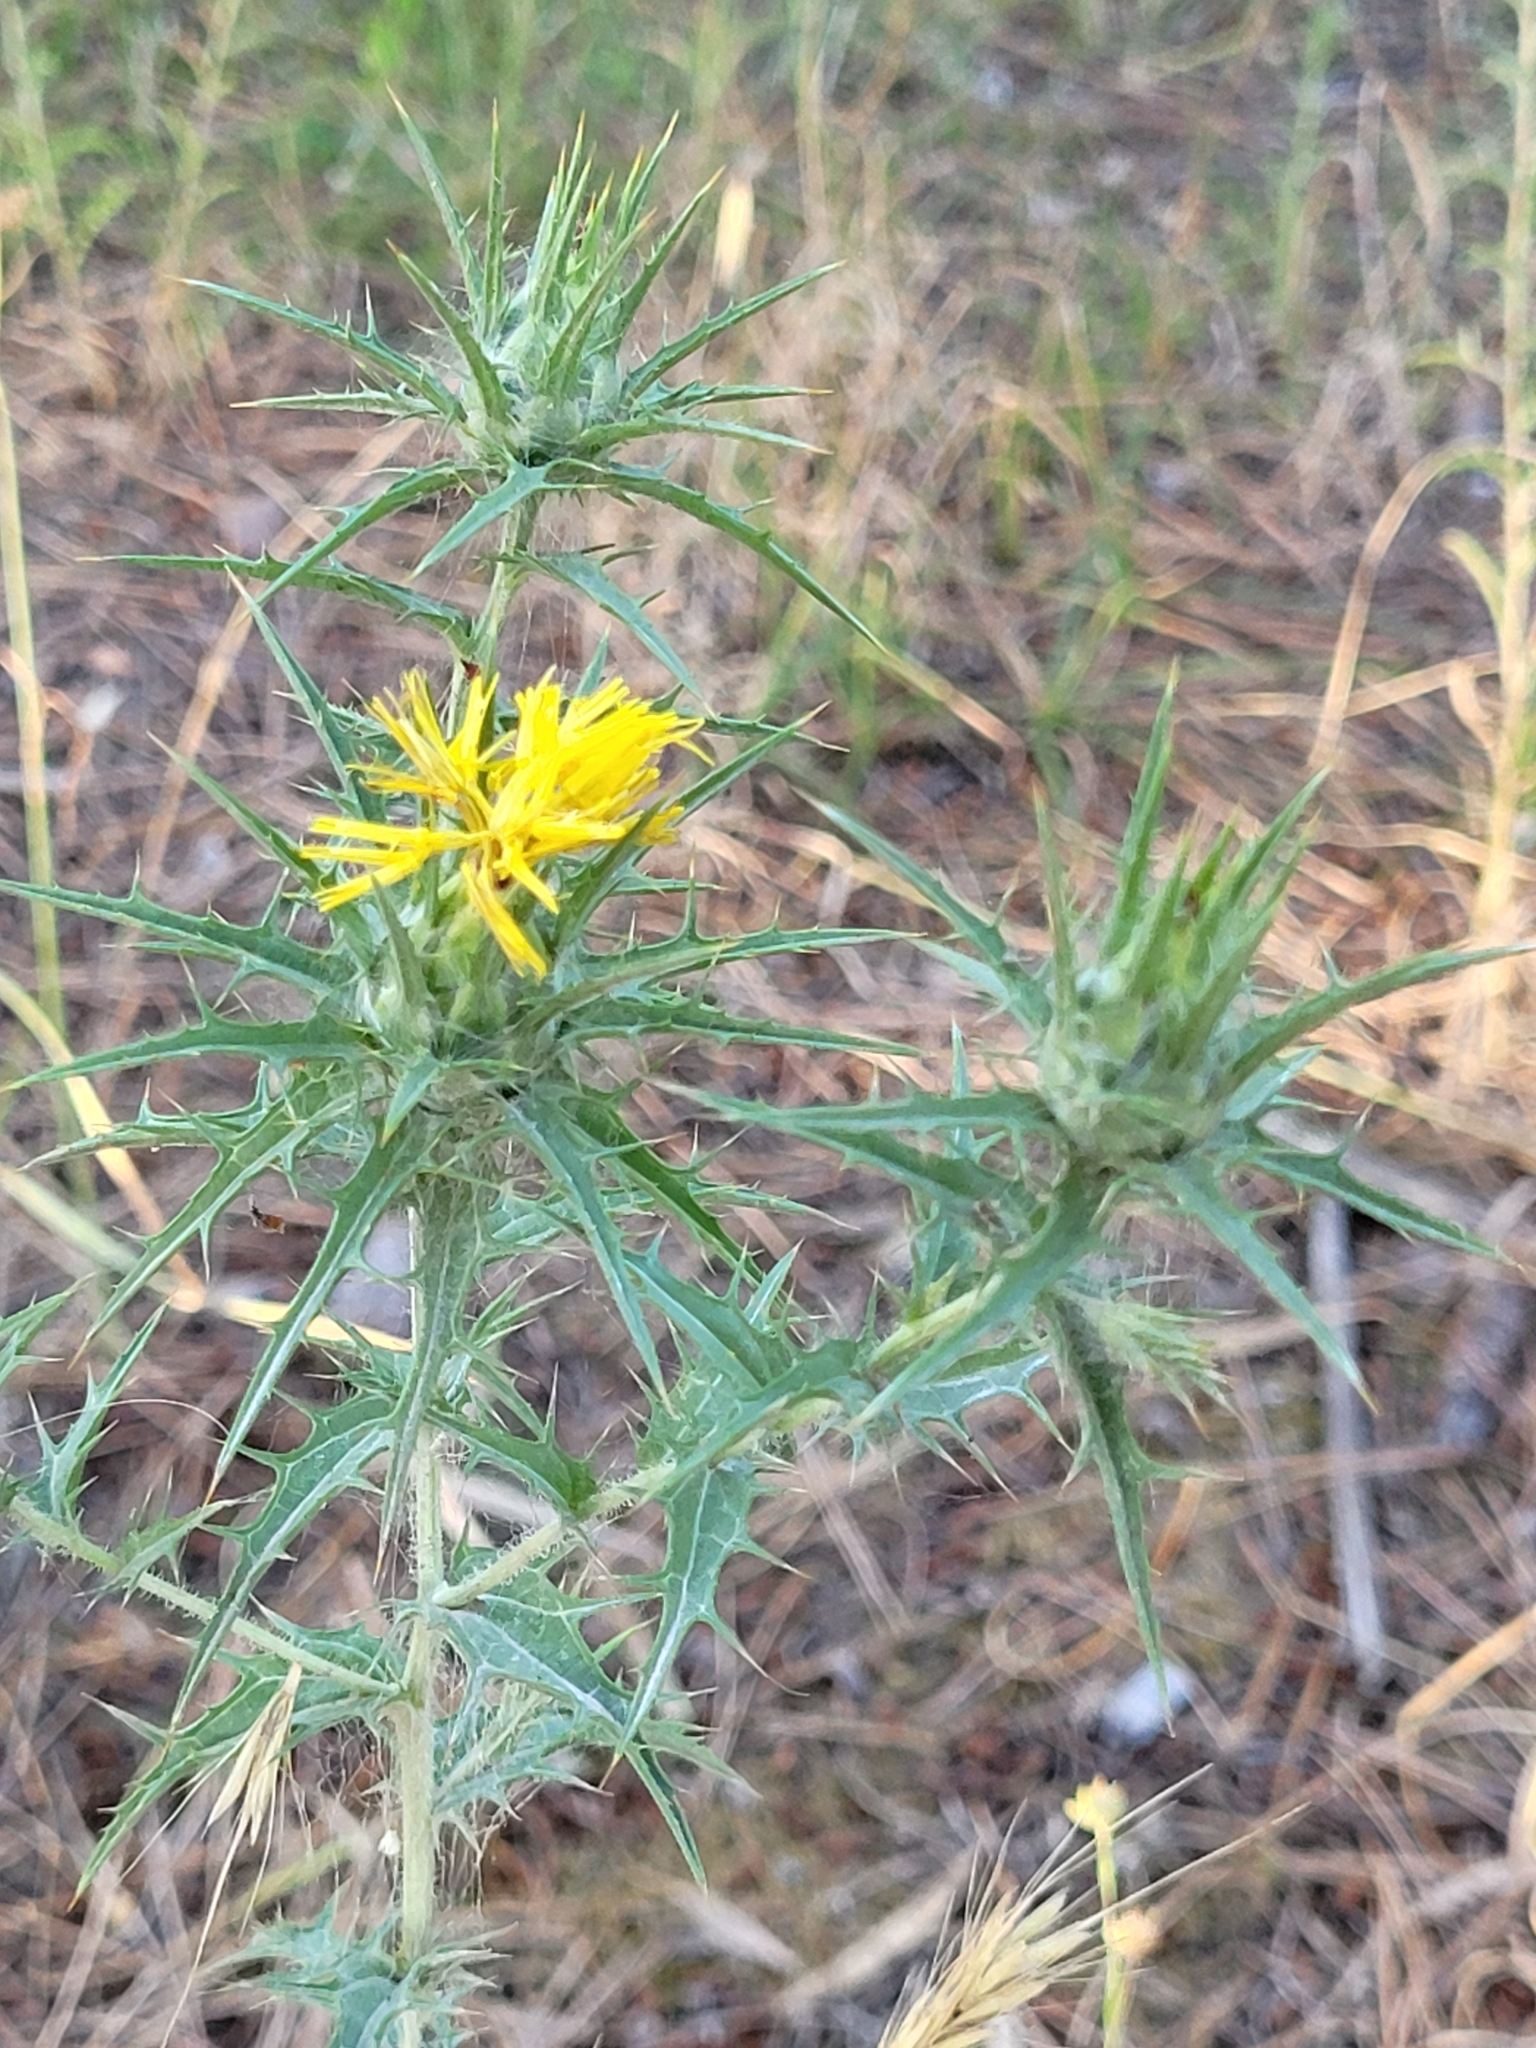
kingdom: Plantae
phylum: Tracheophyta
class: Magnoliopsida
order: Asterales
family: Asteraceae
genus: Carthamus
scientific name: Carthamus lanatus
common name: Downy safflower
